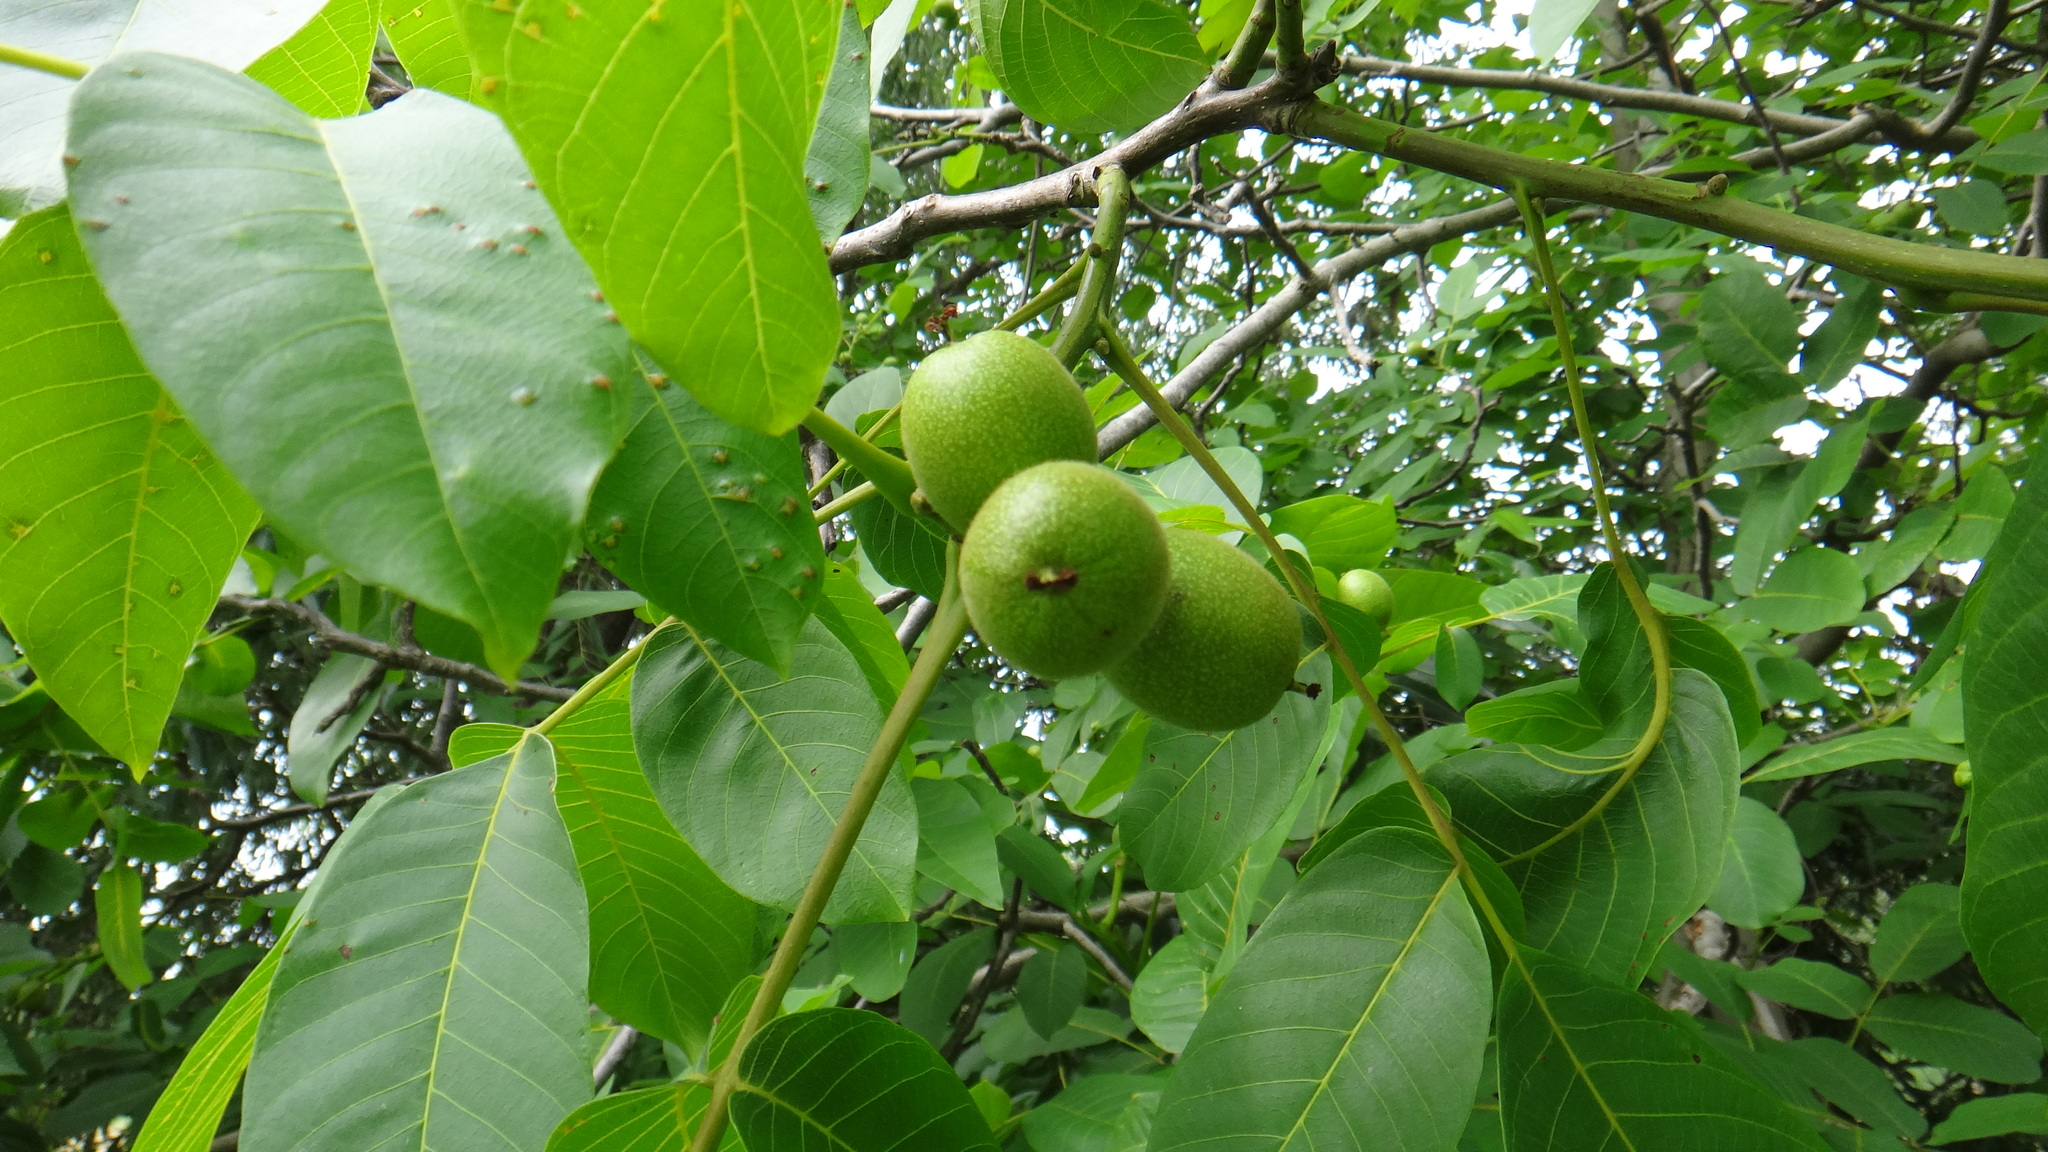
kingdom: Plantae
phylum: Tracheophyta
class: Magnoliopsida
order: Fagales
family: Juglandaceae
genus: Juglans
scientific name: Juglans regia
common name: Walnut
